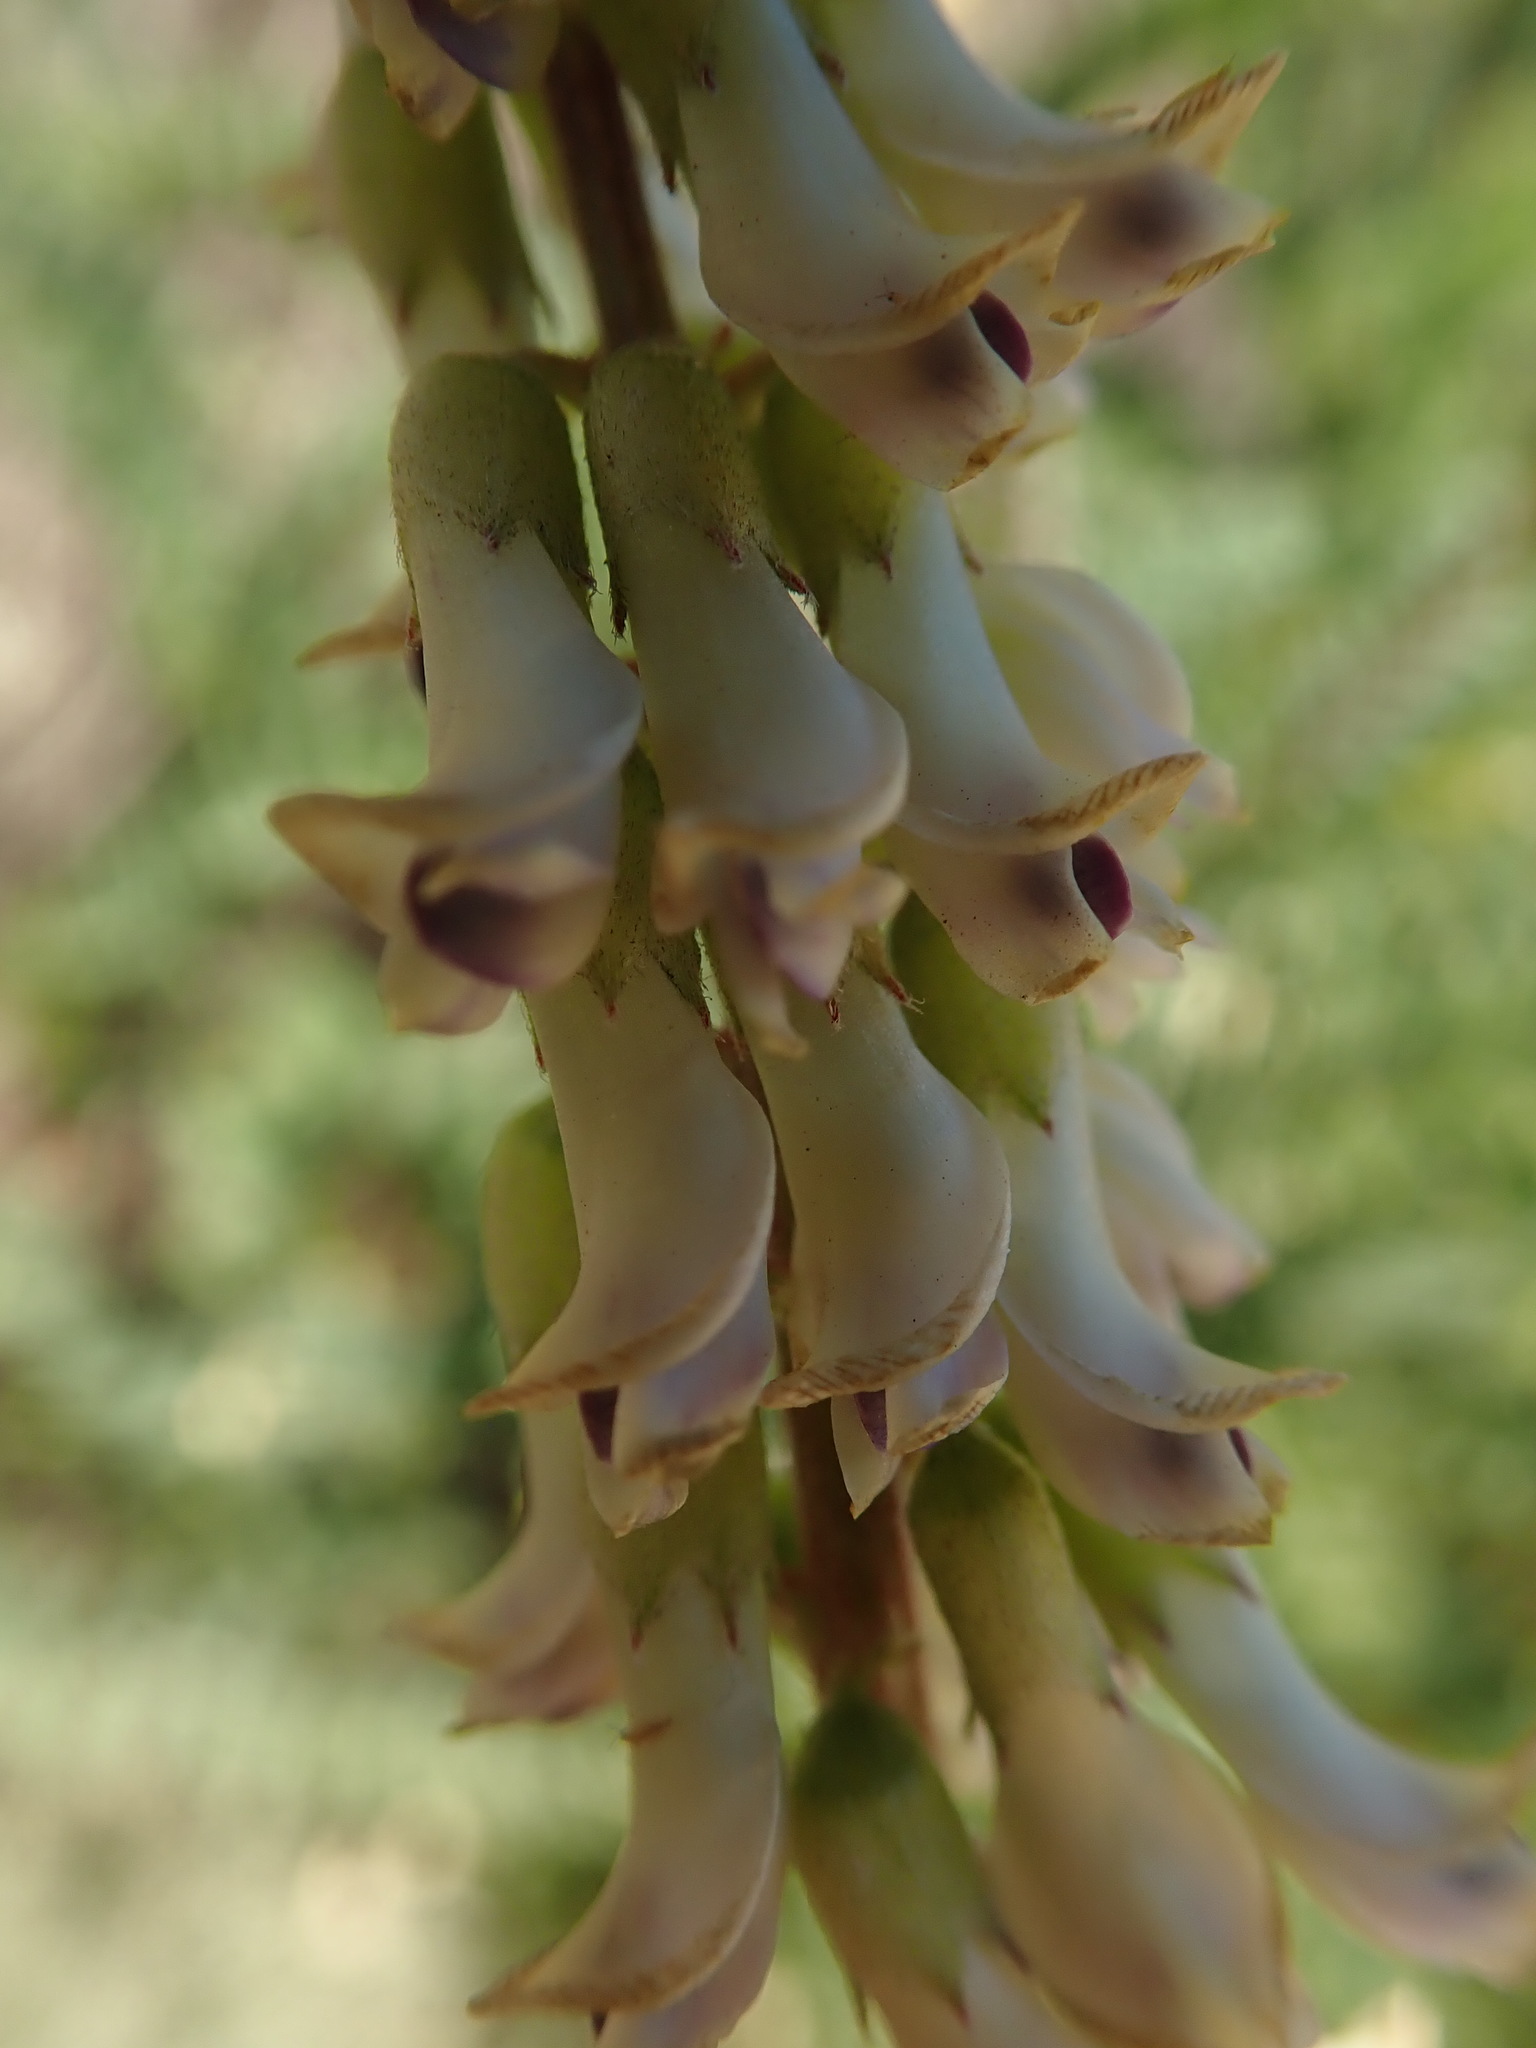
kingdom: Plantae
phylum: Tracheophyta
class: Magnoliopsida
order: Fabales
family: Fabaceae
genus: Astragalus
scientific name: Astragalus nuttallii
